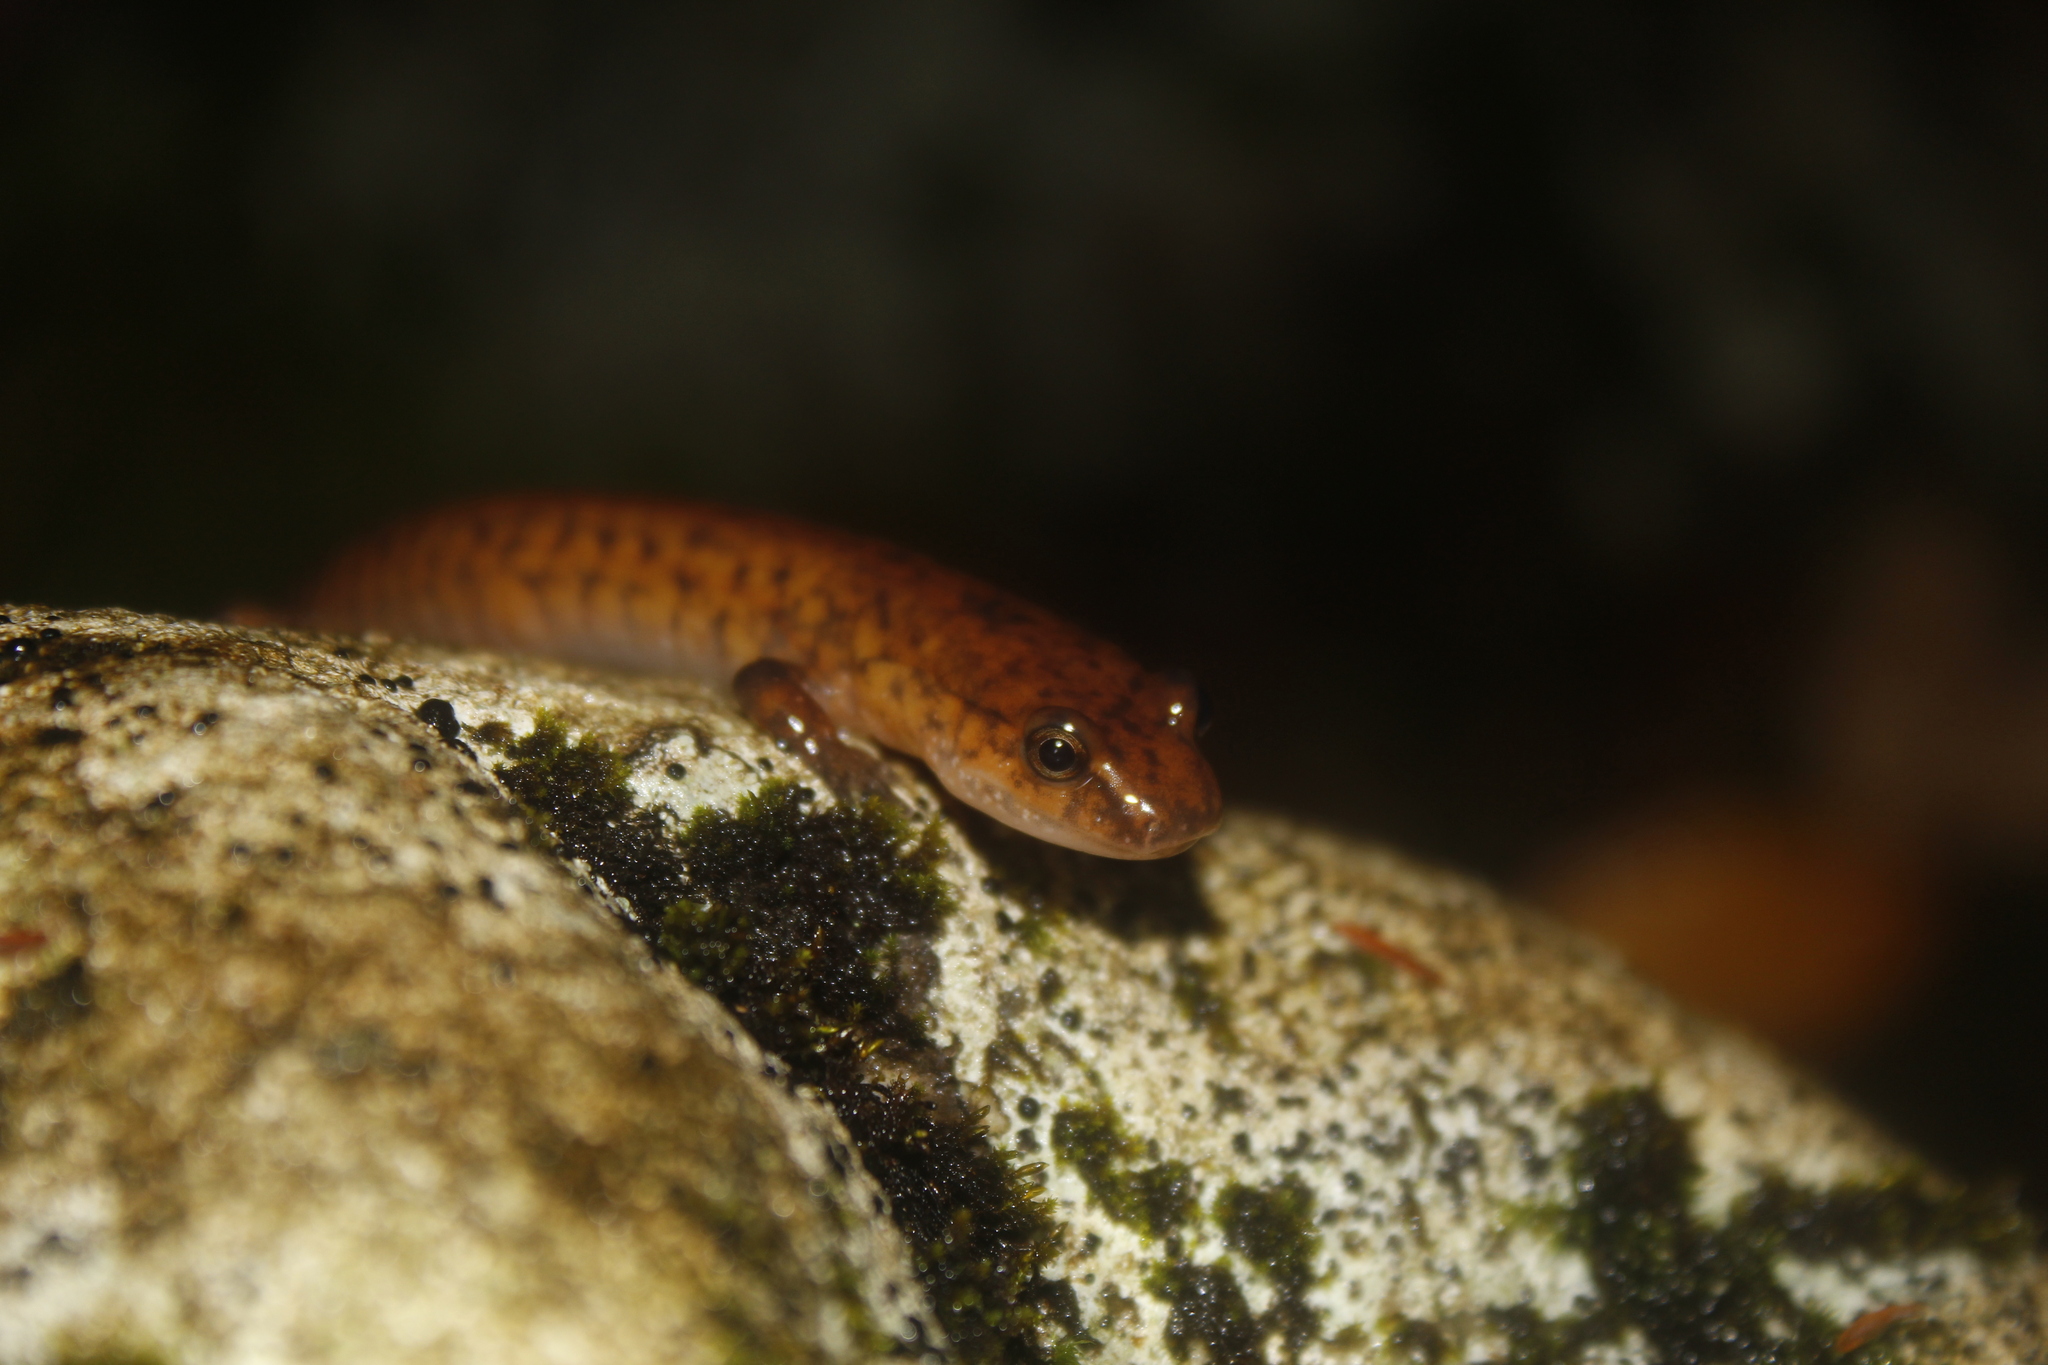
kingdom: Animalia
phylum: Chordata
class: Amphibia
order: Caudata
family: Plethodontidae
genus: Gyrinophilus
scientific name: Gyrinophilus porphyriticus
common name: Spring salamander
